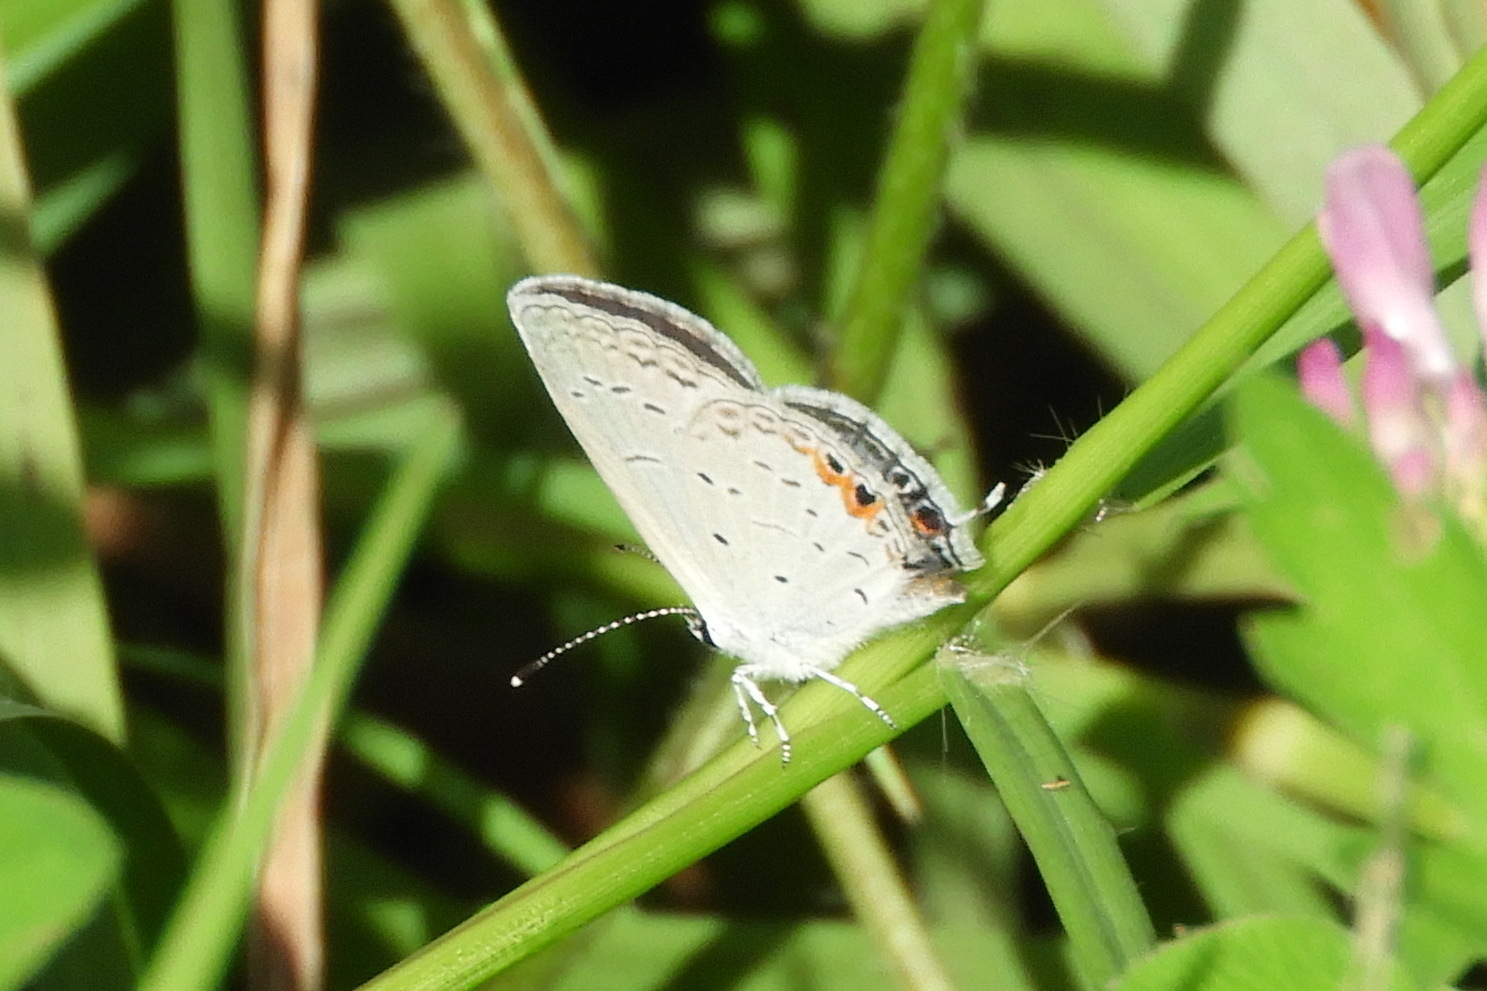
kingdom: Animalia
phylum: Arthropoda
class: Insecta
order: Lepidoptera
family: Lycaenidae
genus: Elkalyce
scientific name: Elkalyce comyntas
